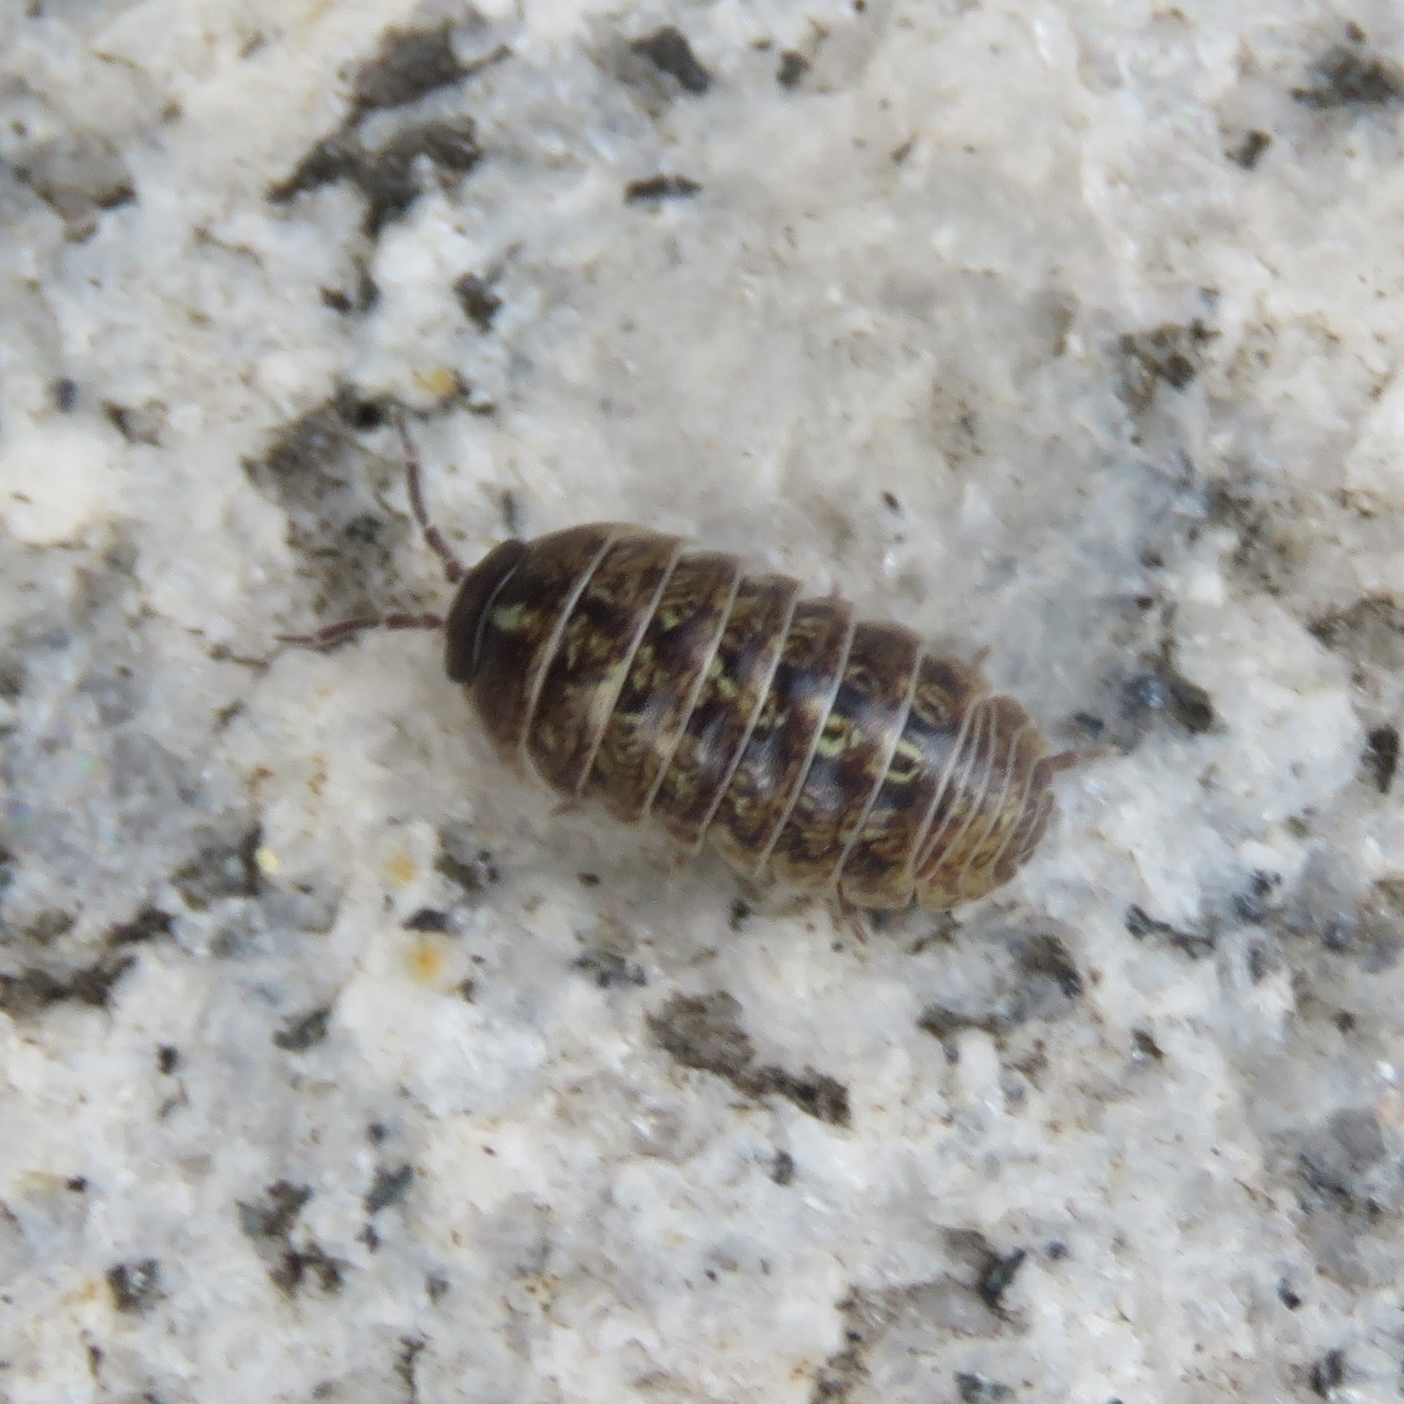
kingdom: Animalia
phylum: Arthropoda
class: Malacostraca
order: Isopoda
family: Armadillidiidae
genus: Armadillidium
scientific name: Armadillidium vulgare
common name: Common pill woodlouse
